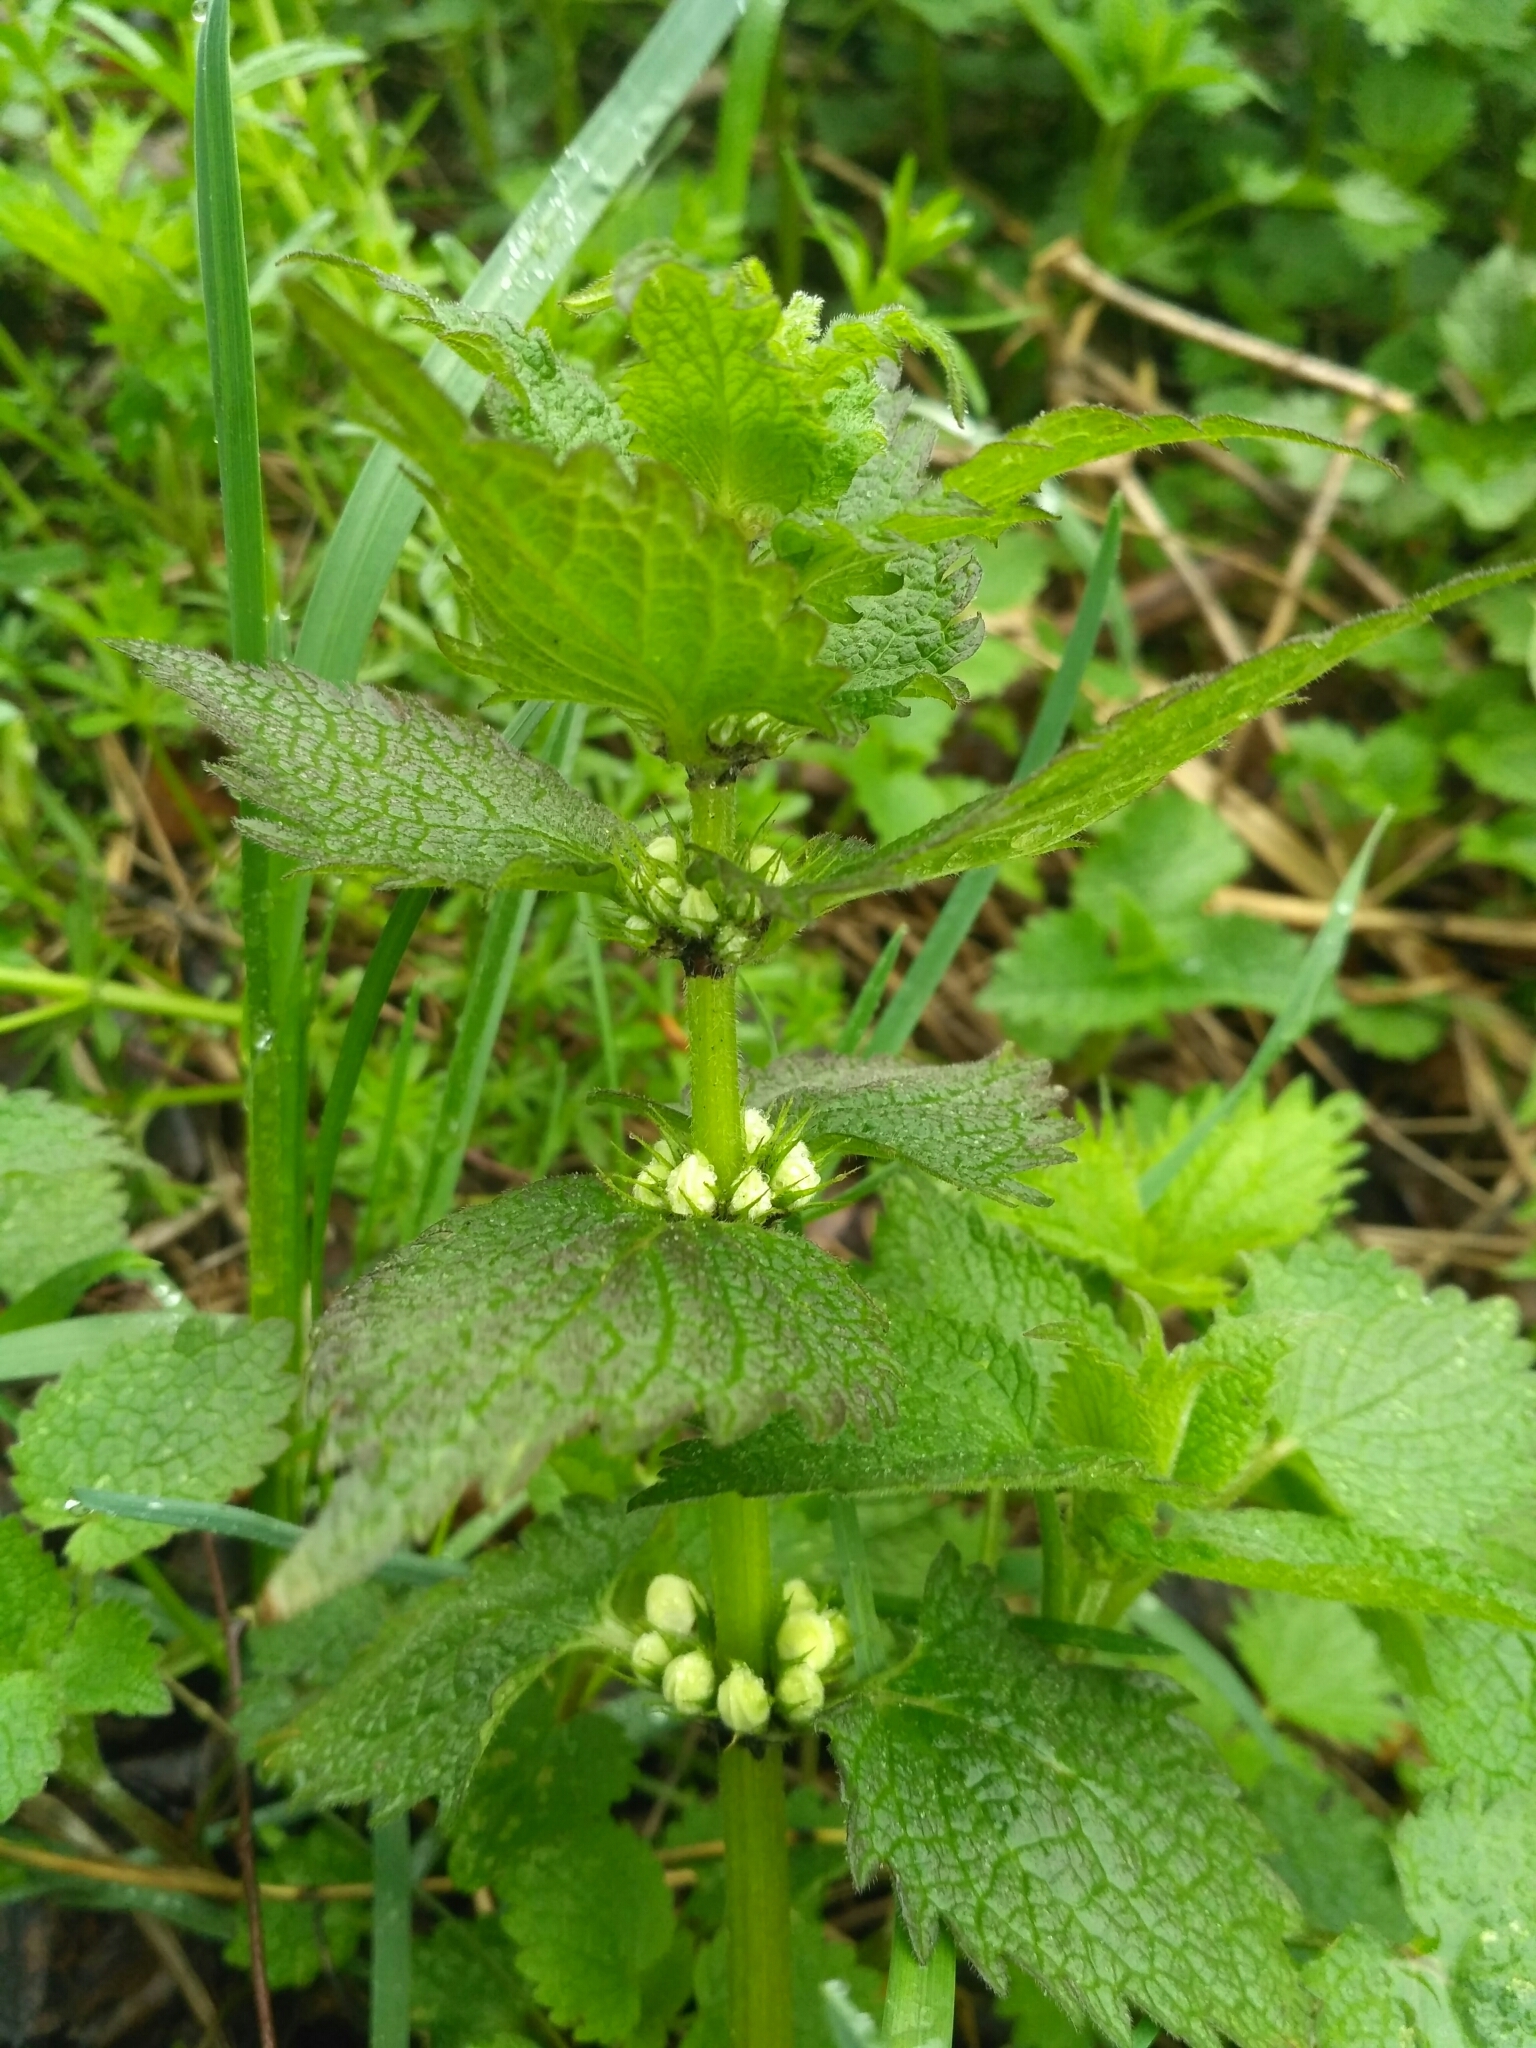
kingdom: Plantae
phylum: Tracheophyta
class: Magnoliopsida
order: Lamiales
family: Lamiaceae
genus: Lamium
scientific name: Lamium album
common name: White dead-nettle
